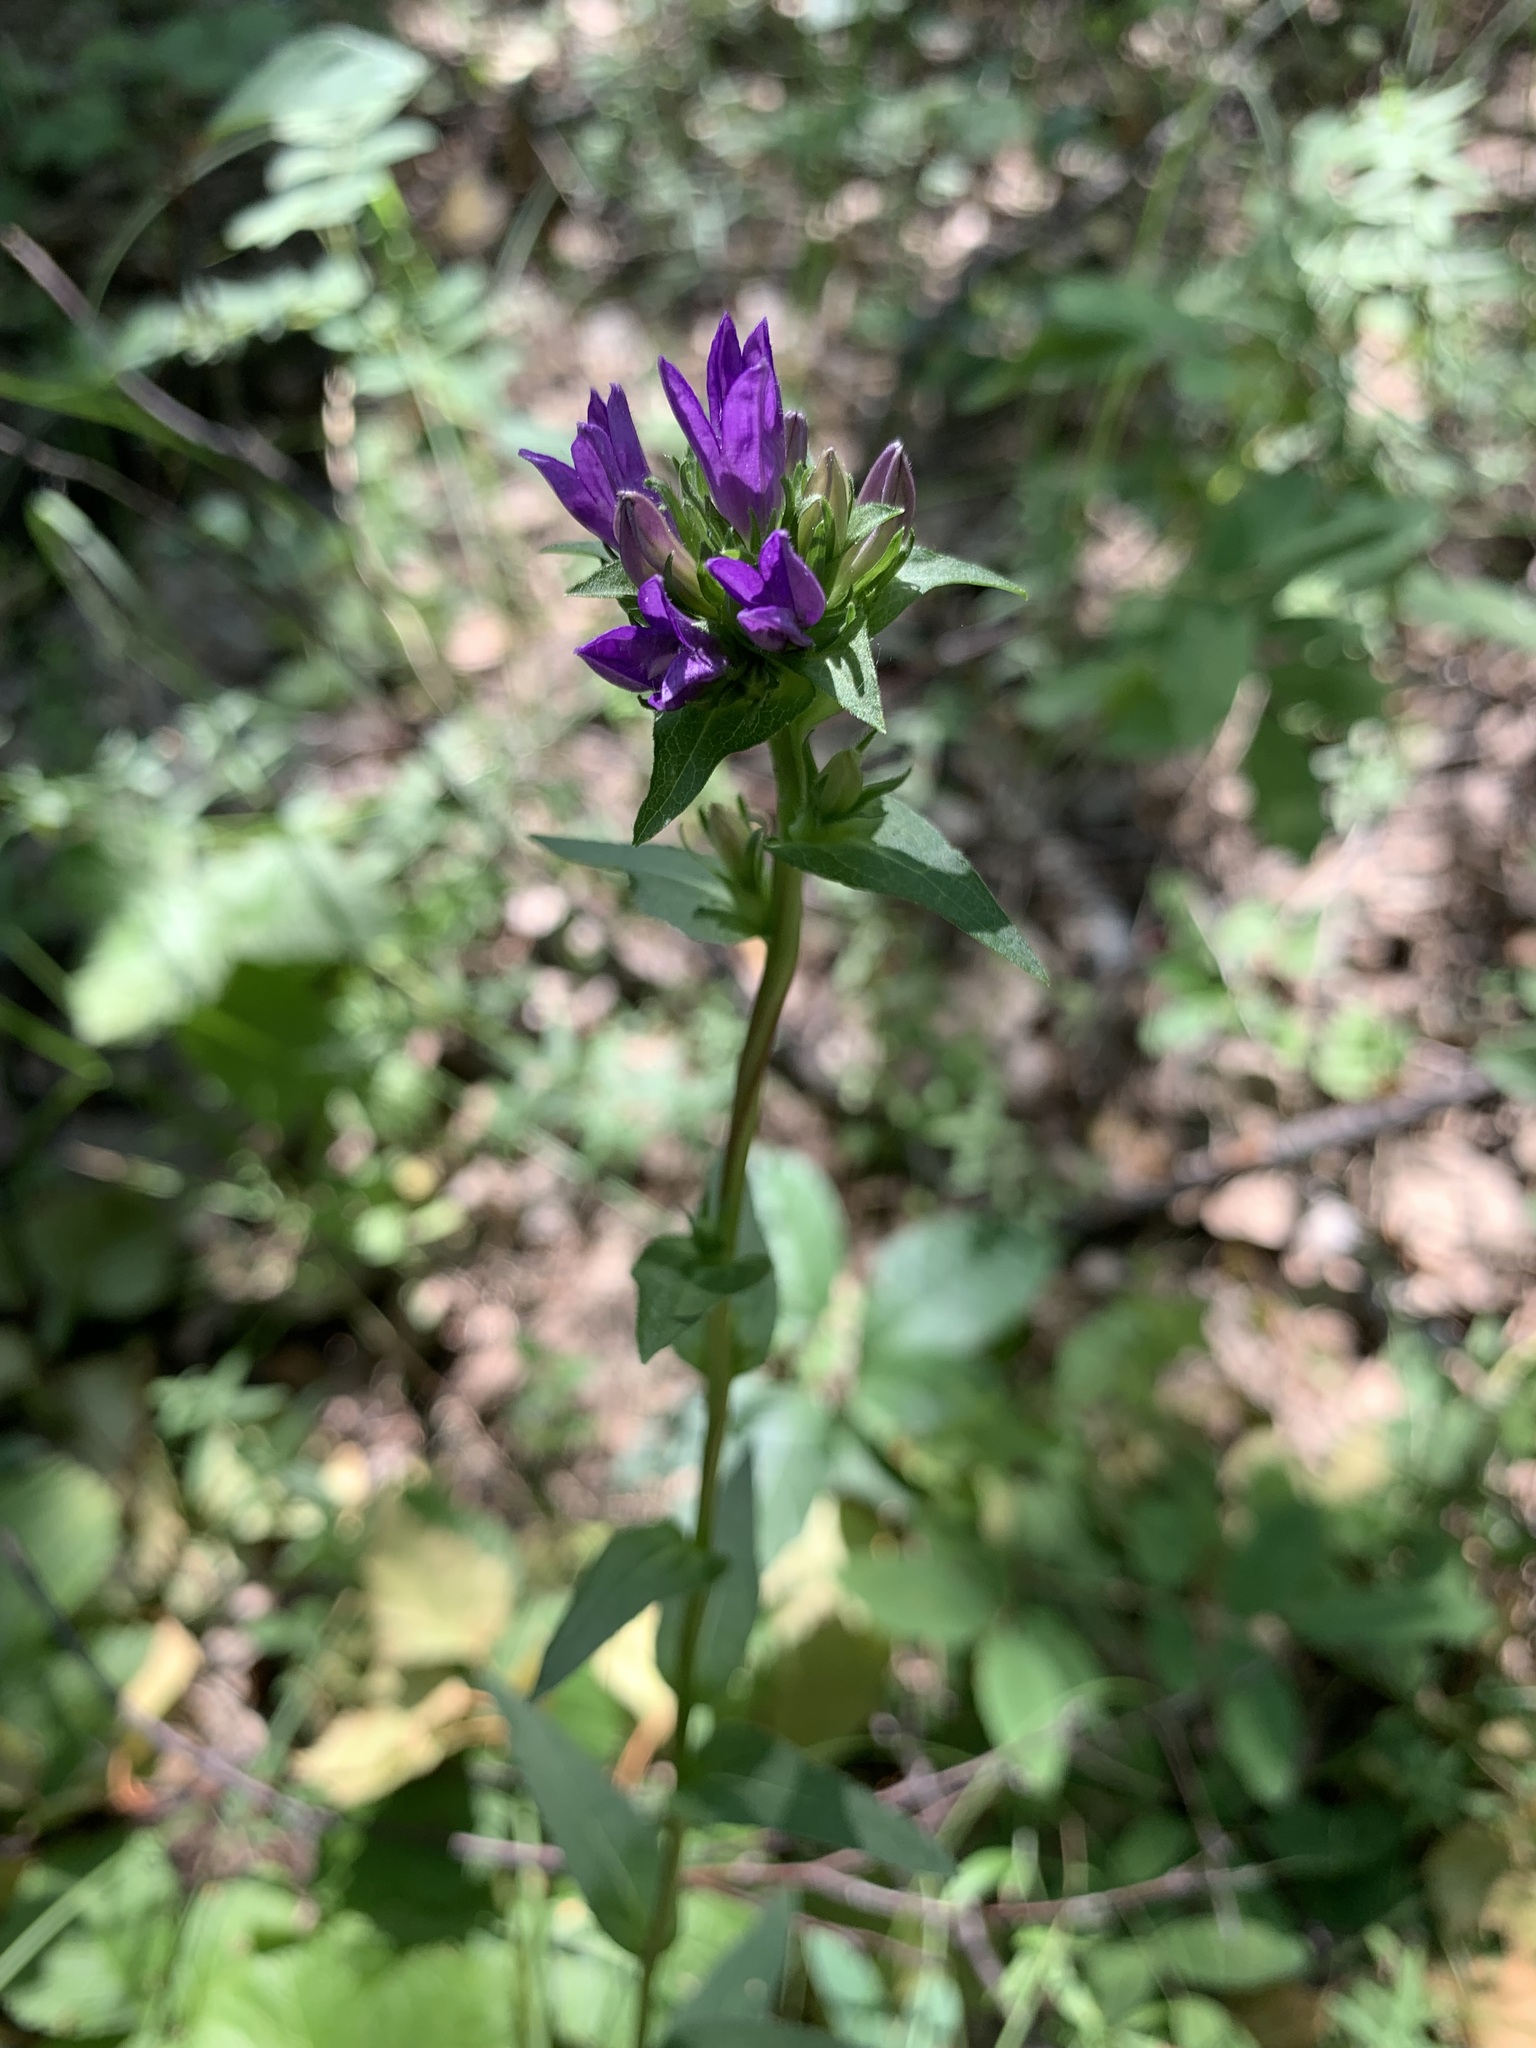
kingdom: Plantae
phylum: Tracheophyta
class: Magnoliopsida
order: Asterales
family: Campanulaceae
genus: Campanula
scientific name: Campanula glomerata
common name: Clustered bellflower
